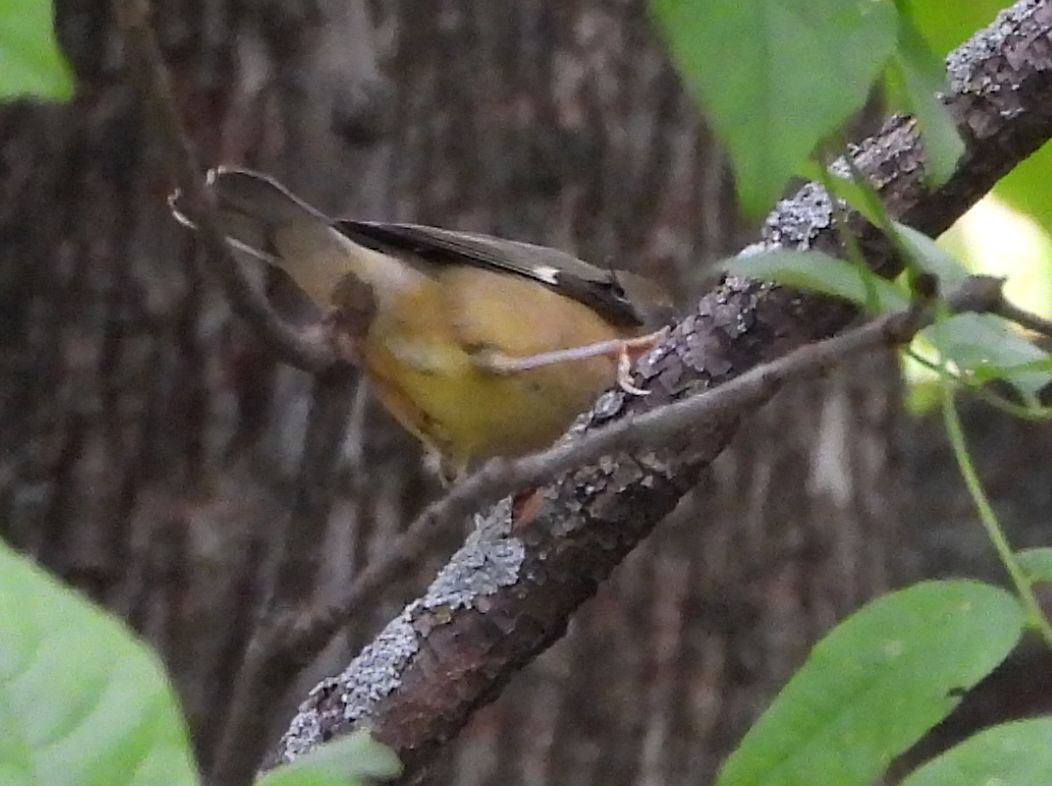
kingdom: Animalia
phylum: Chordata
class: Aves
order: Passeriformes
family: Parulidae
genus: Setophaga
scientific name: Setophaga caerulescens
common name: Black-throated blue warbler
